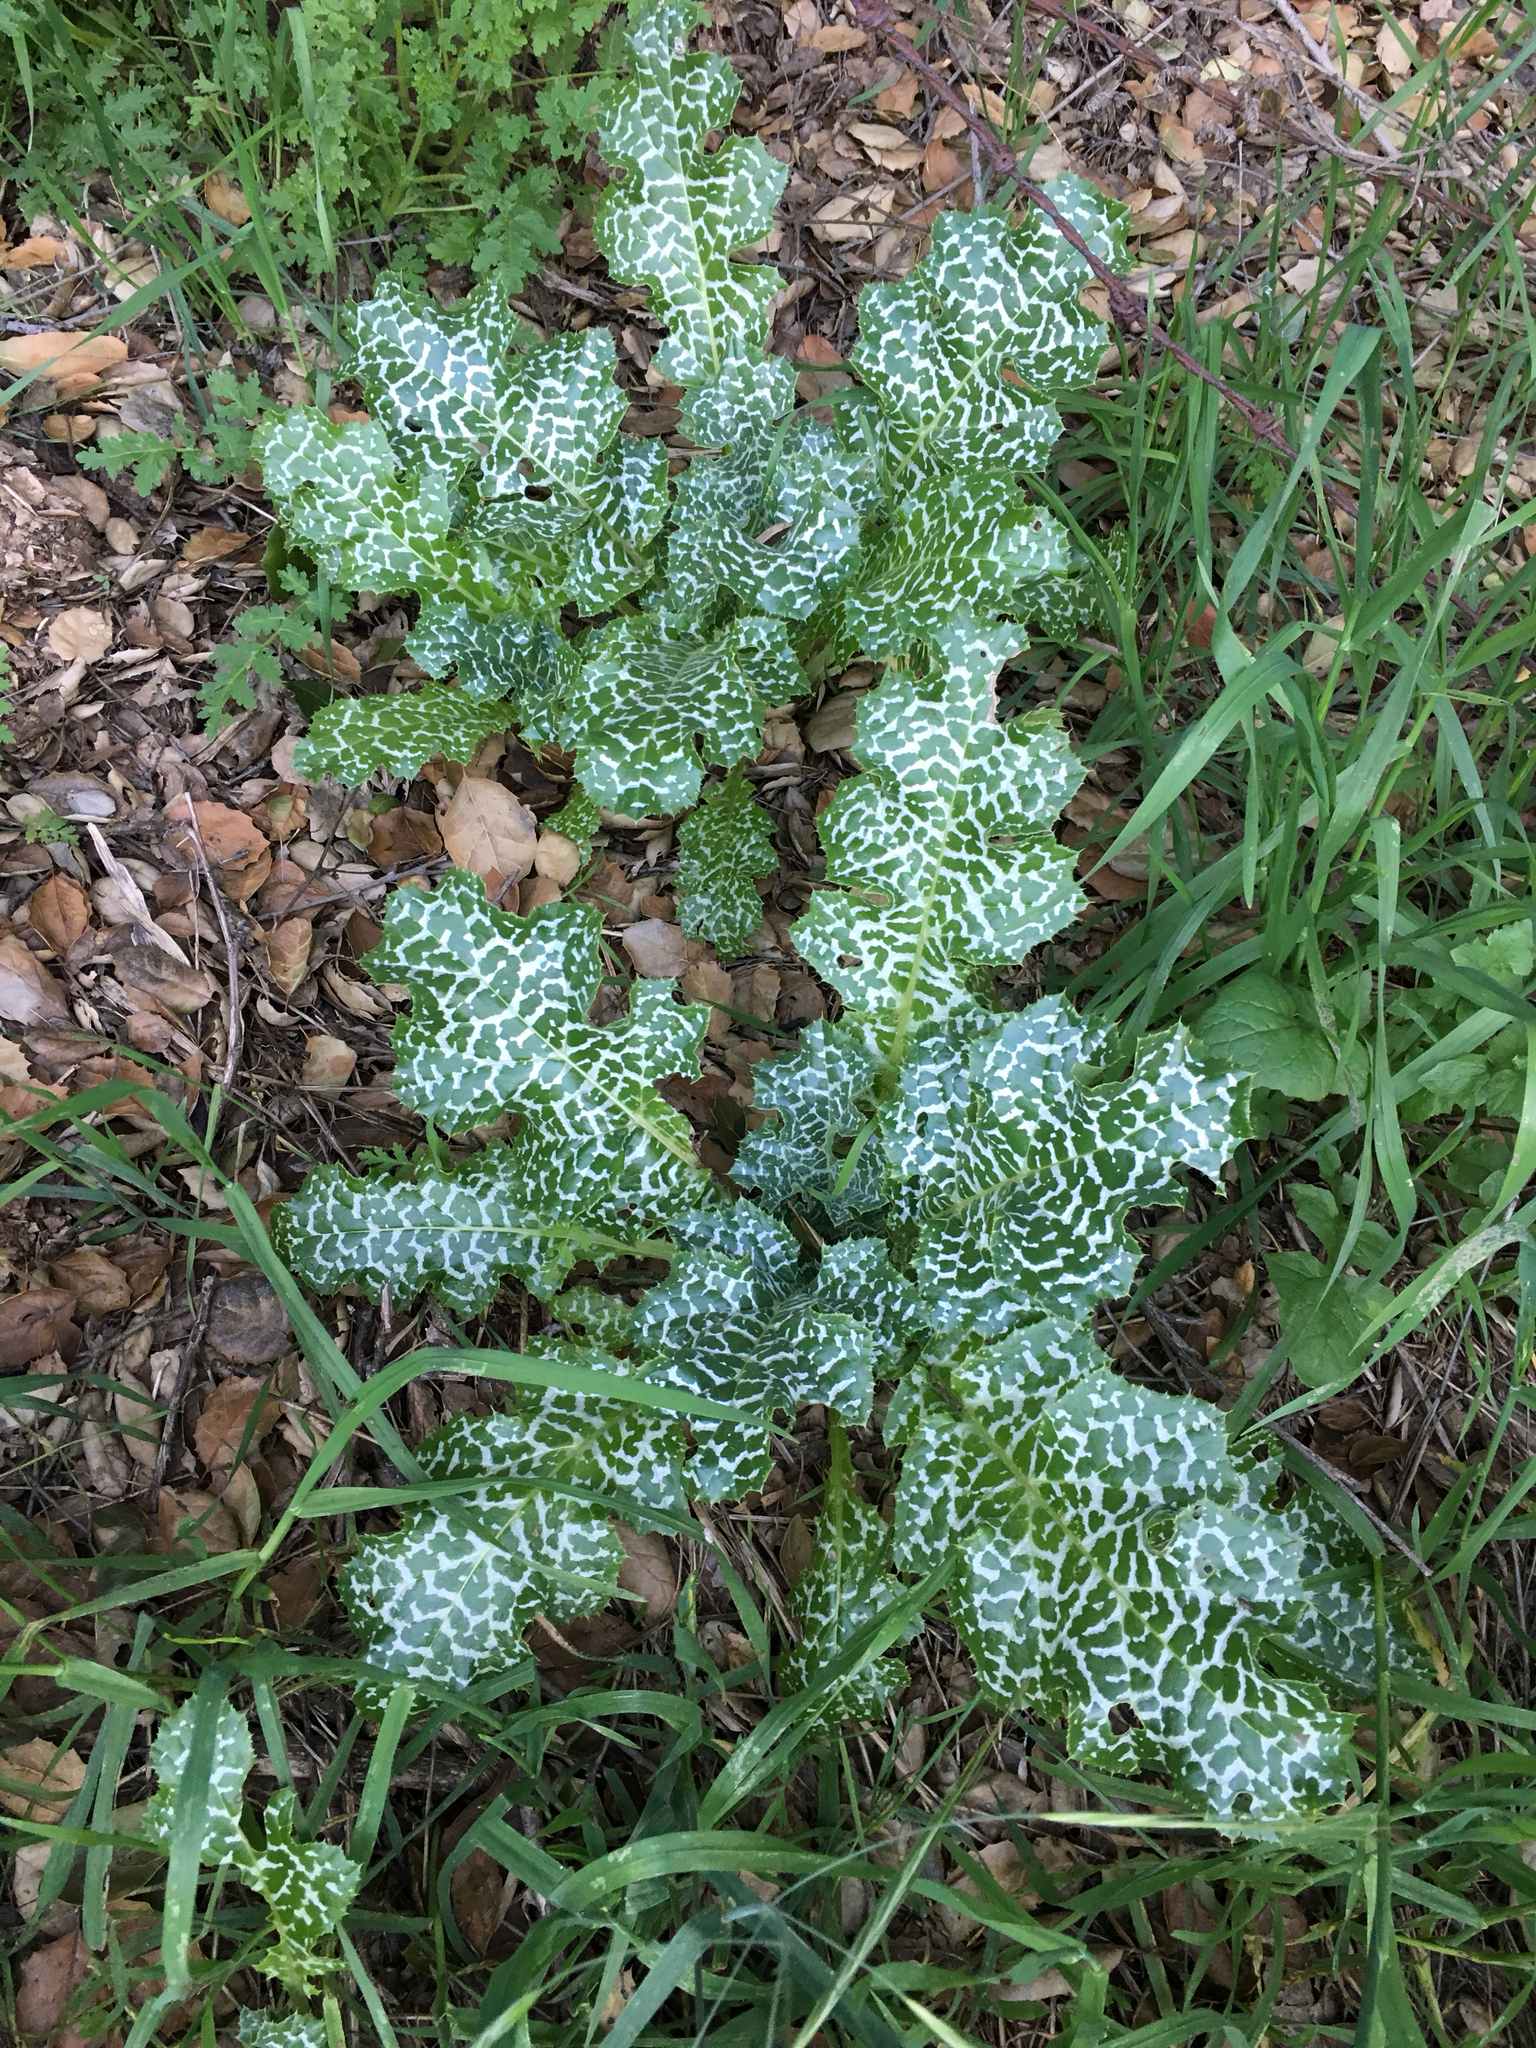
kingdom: Plantae
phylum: Tracheophyta
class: Magnoliopsida
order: Asterales
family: Asteraceae
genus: Silybum
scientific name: Silybum marianum
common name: Milk thistle
